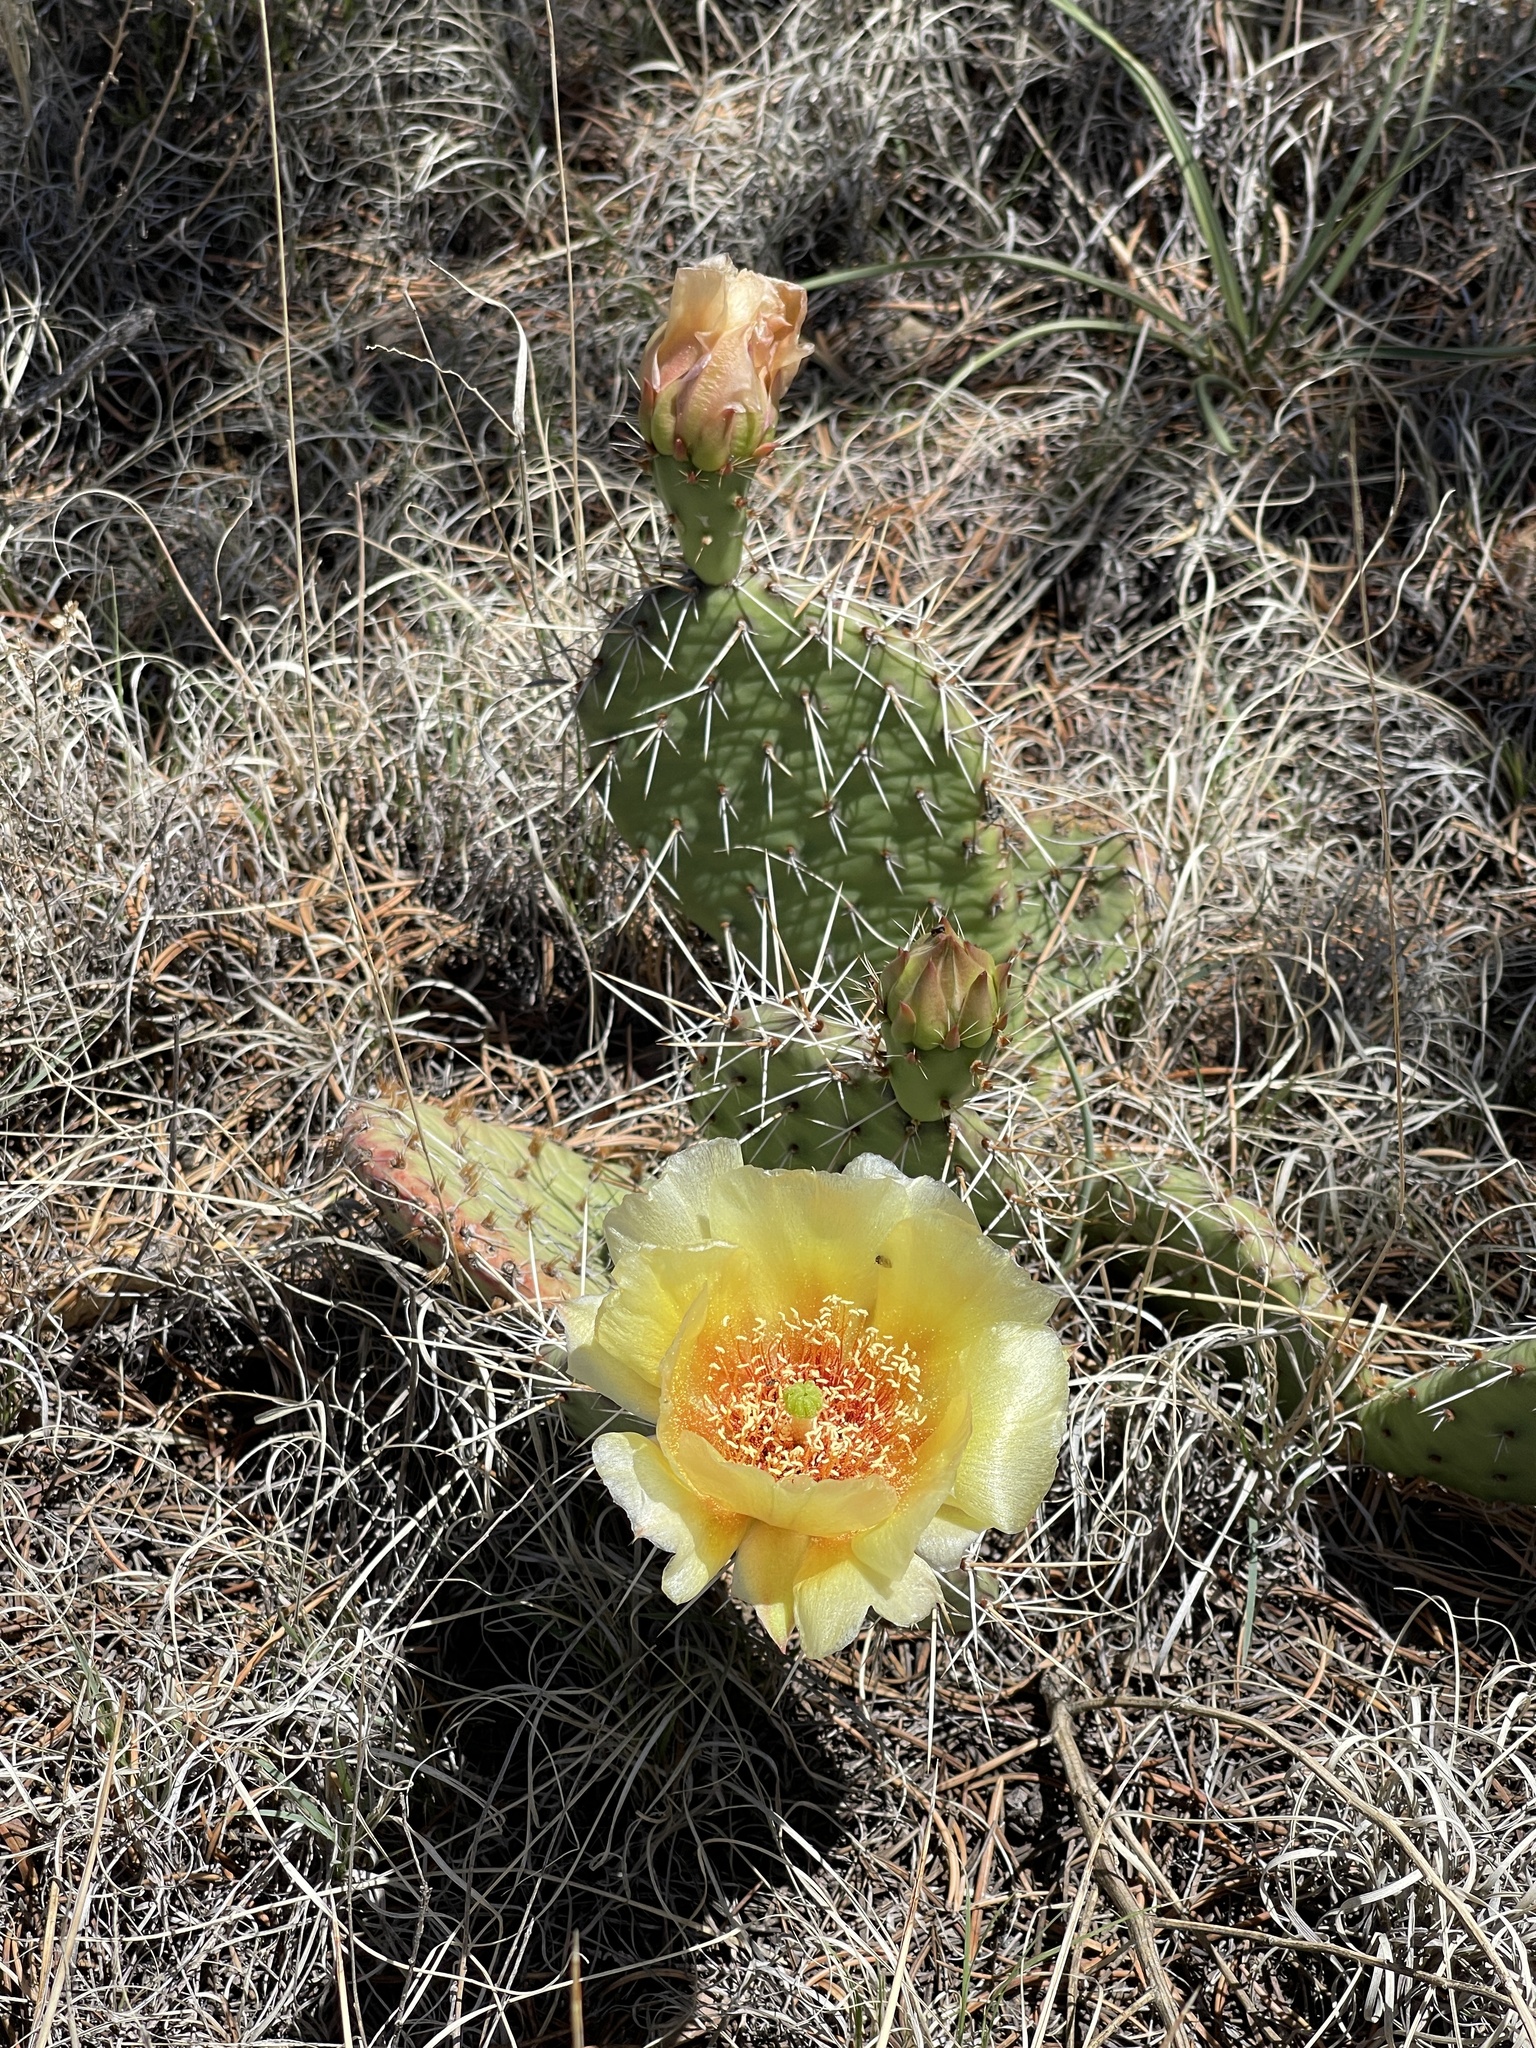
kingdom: Plantae
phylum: Tracheophyta
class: Magnoliopsida
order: Caryophyllales
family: Cactaceae
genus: Opuntia
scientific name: Opuntia polyacantha
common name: Plains prickly-pear
